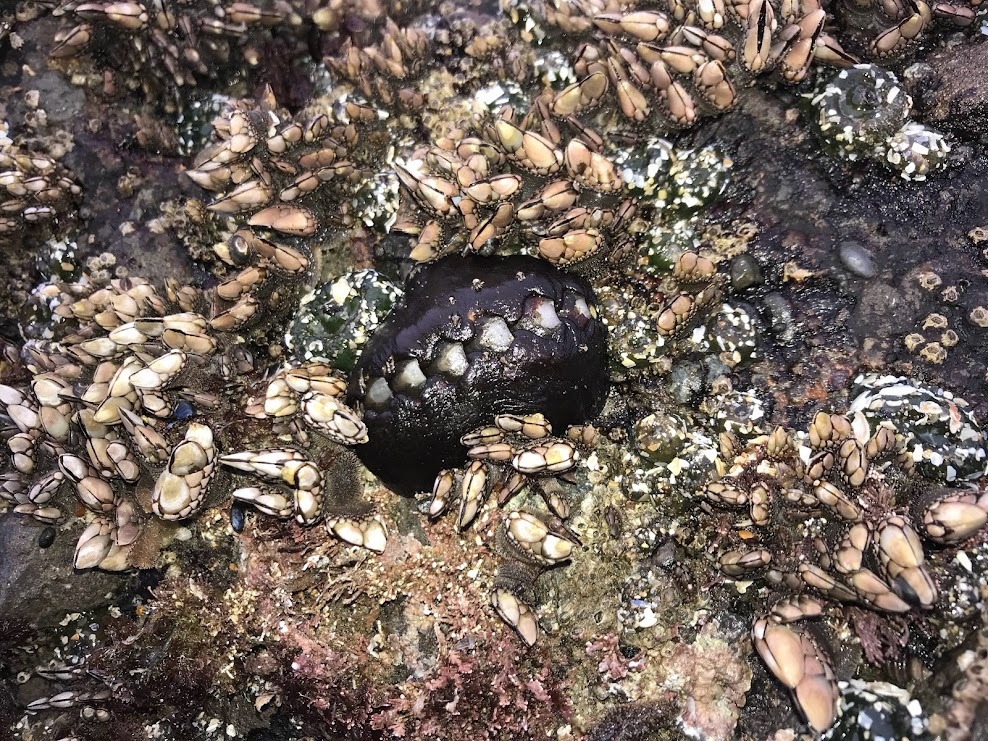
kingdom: Animalia
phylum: Mollusca
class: Polyplacophora
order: Chitonida
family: Mopaliidae
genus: Katharina
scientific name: Katharina tunicata
